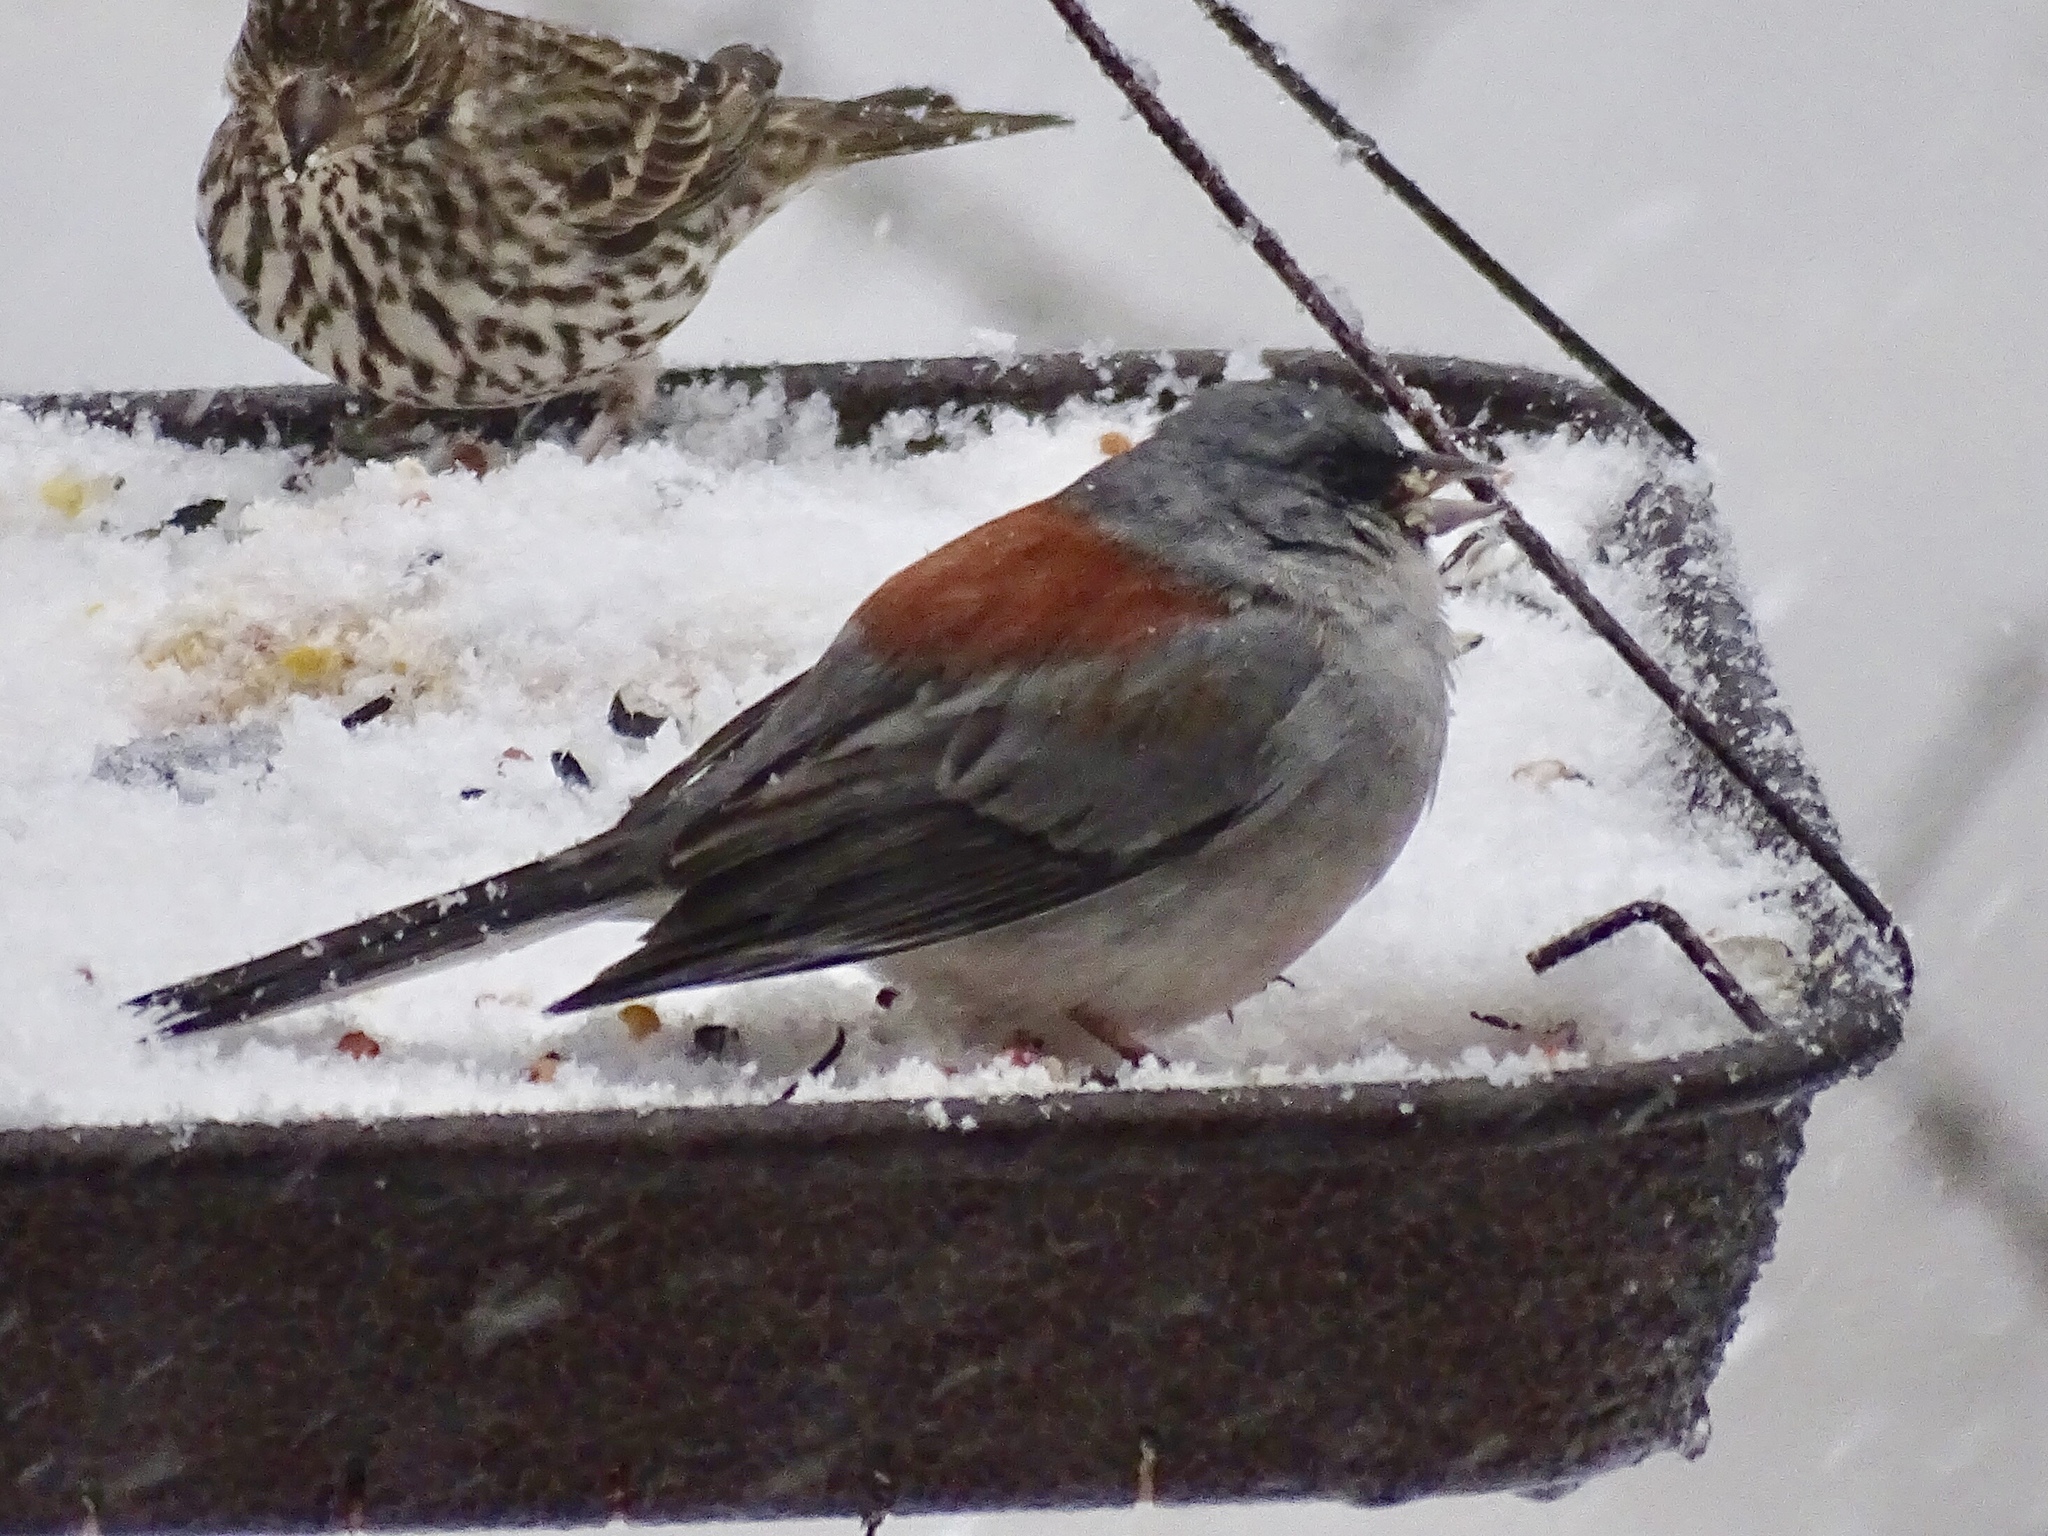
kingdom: Animalia
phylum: Chordata
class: Aves
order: Passeriformes
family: Passerellidae
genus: Junco
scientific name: Junco hyemalis
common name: Dark-eyed junco
